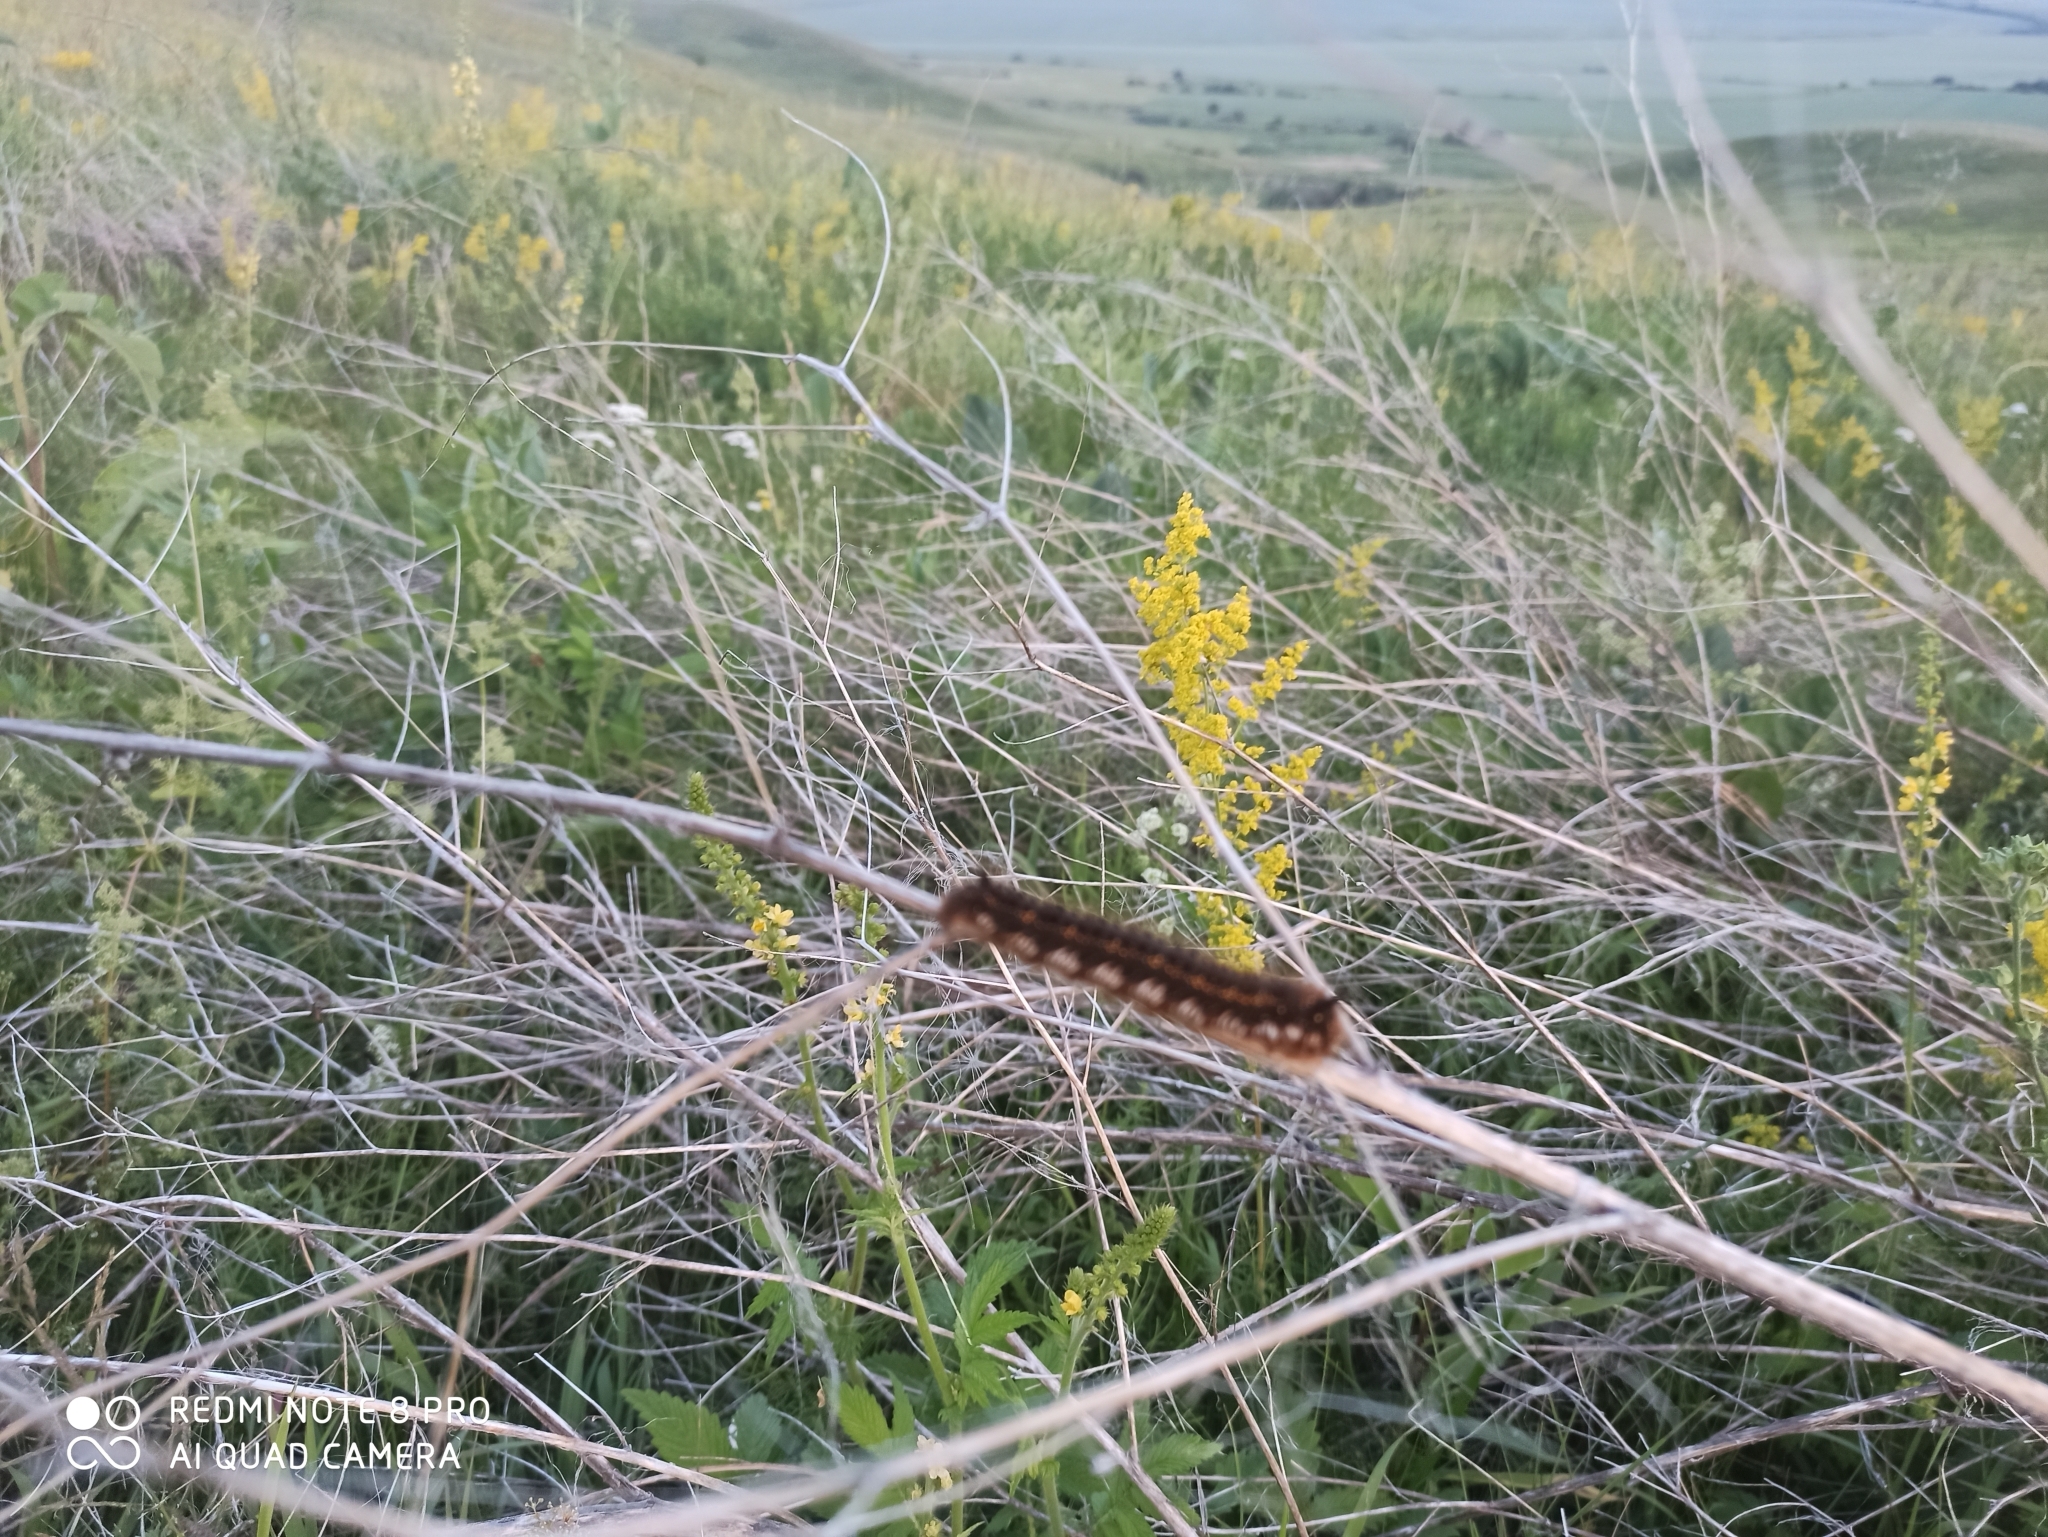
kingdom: Animalia
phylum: Arthropoda
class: Insecta
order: Lepidoptera
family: Lasiocampidae
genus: Euthrix
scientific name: Euthrix potatoria
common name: Drinker
